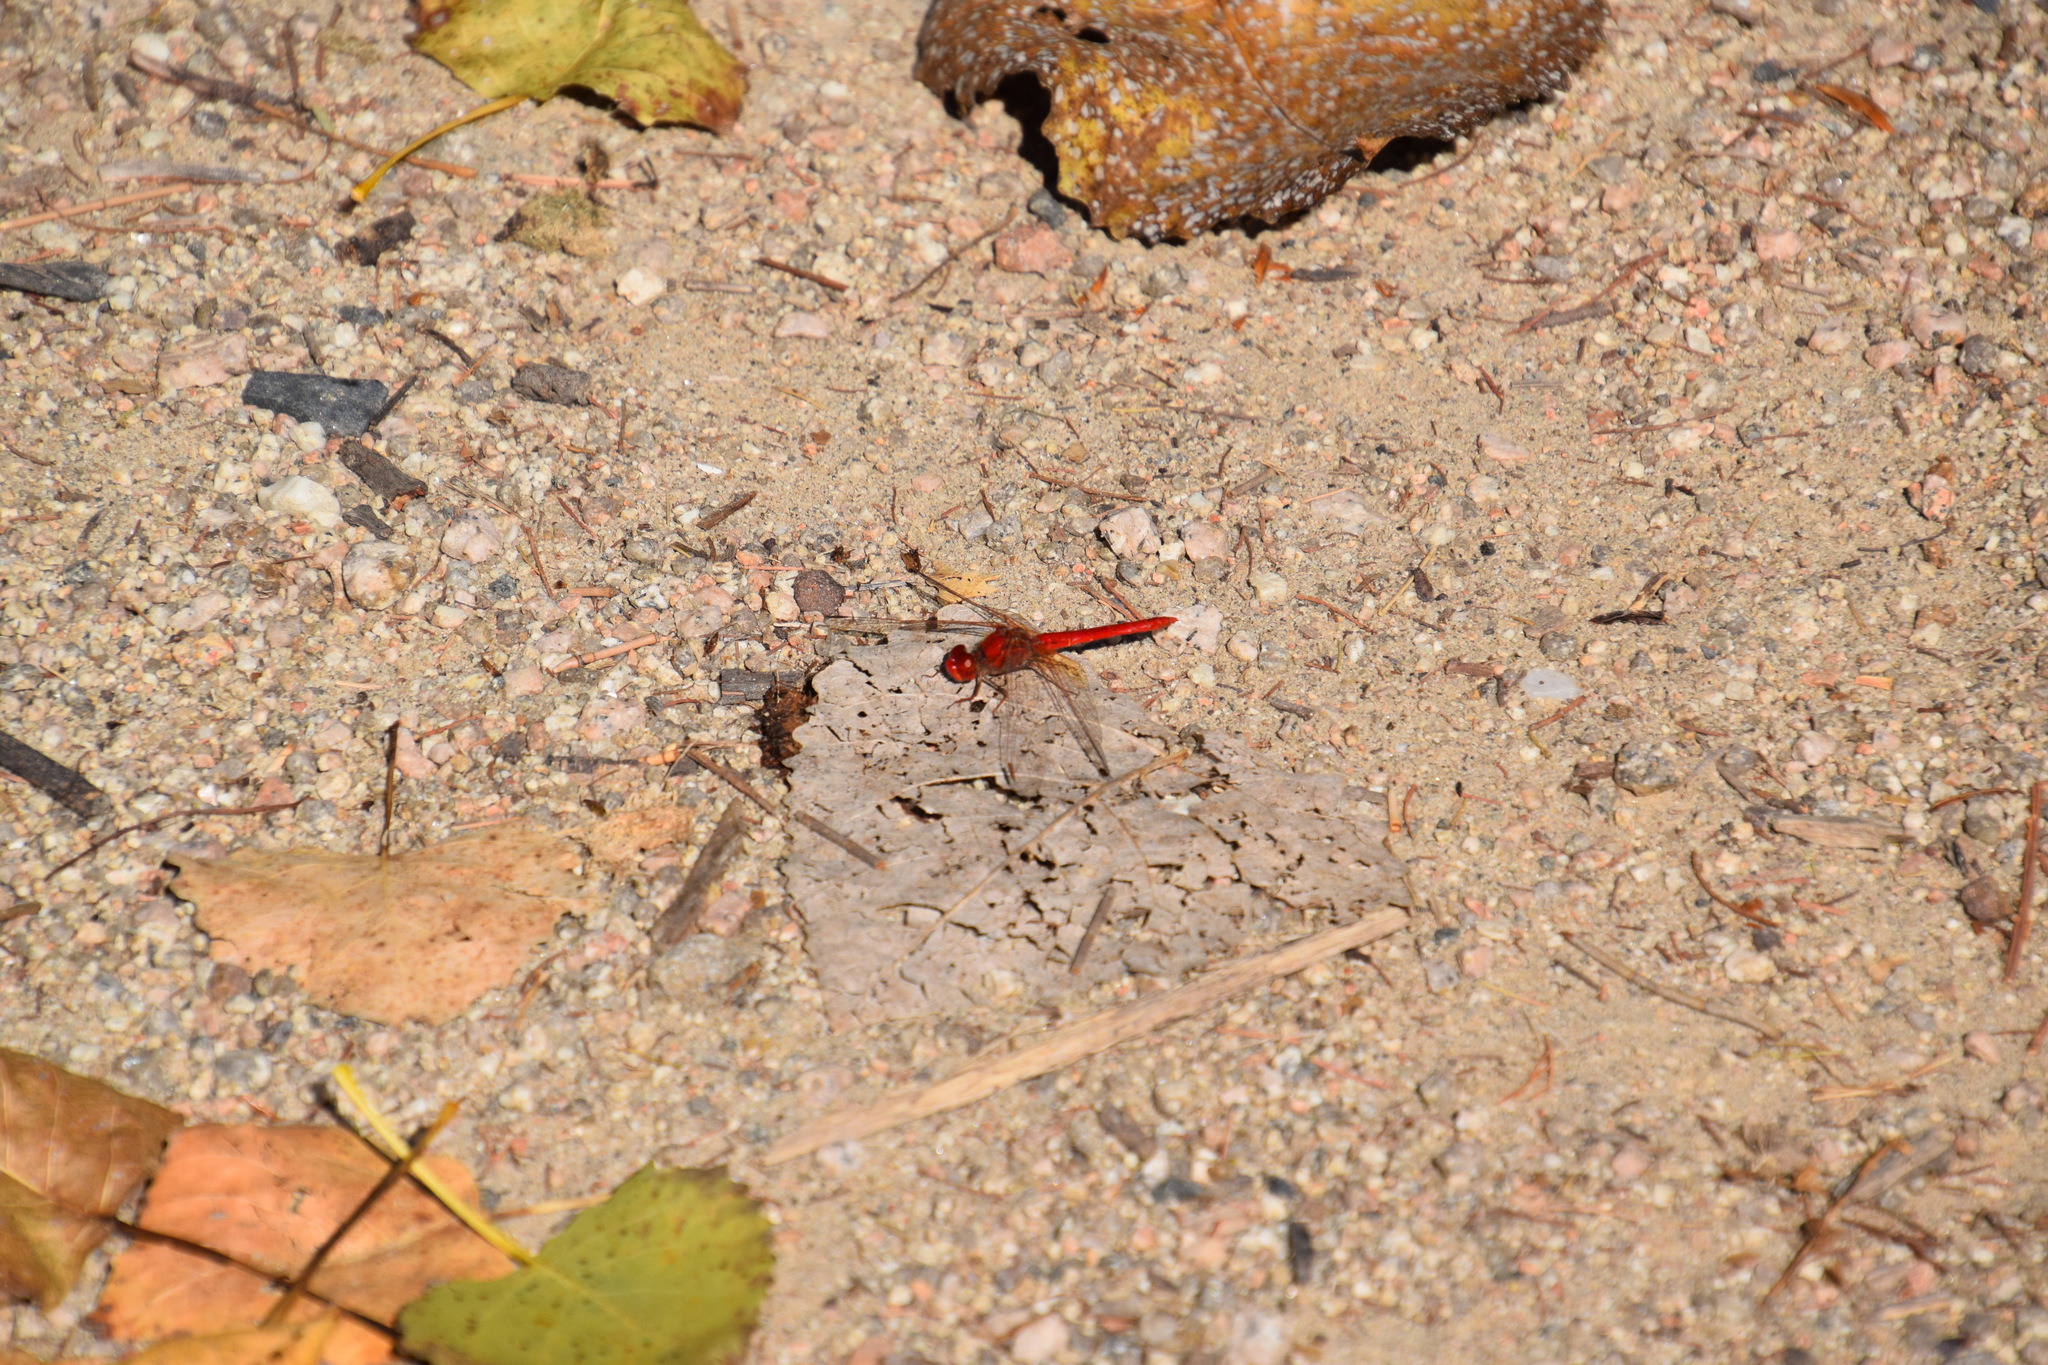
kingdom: Animalia
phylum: Arthropoda
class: Insecta
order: Odonata
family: Libellulidae
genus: Diplacodes
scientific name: Diplacodes haematodes
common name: Scarlet percher
